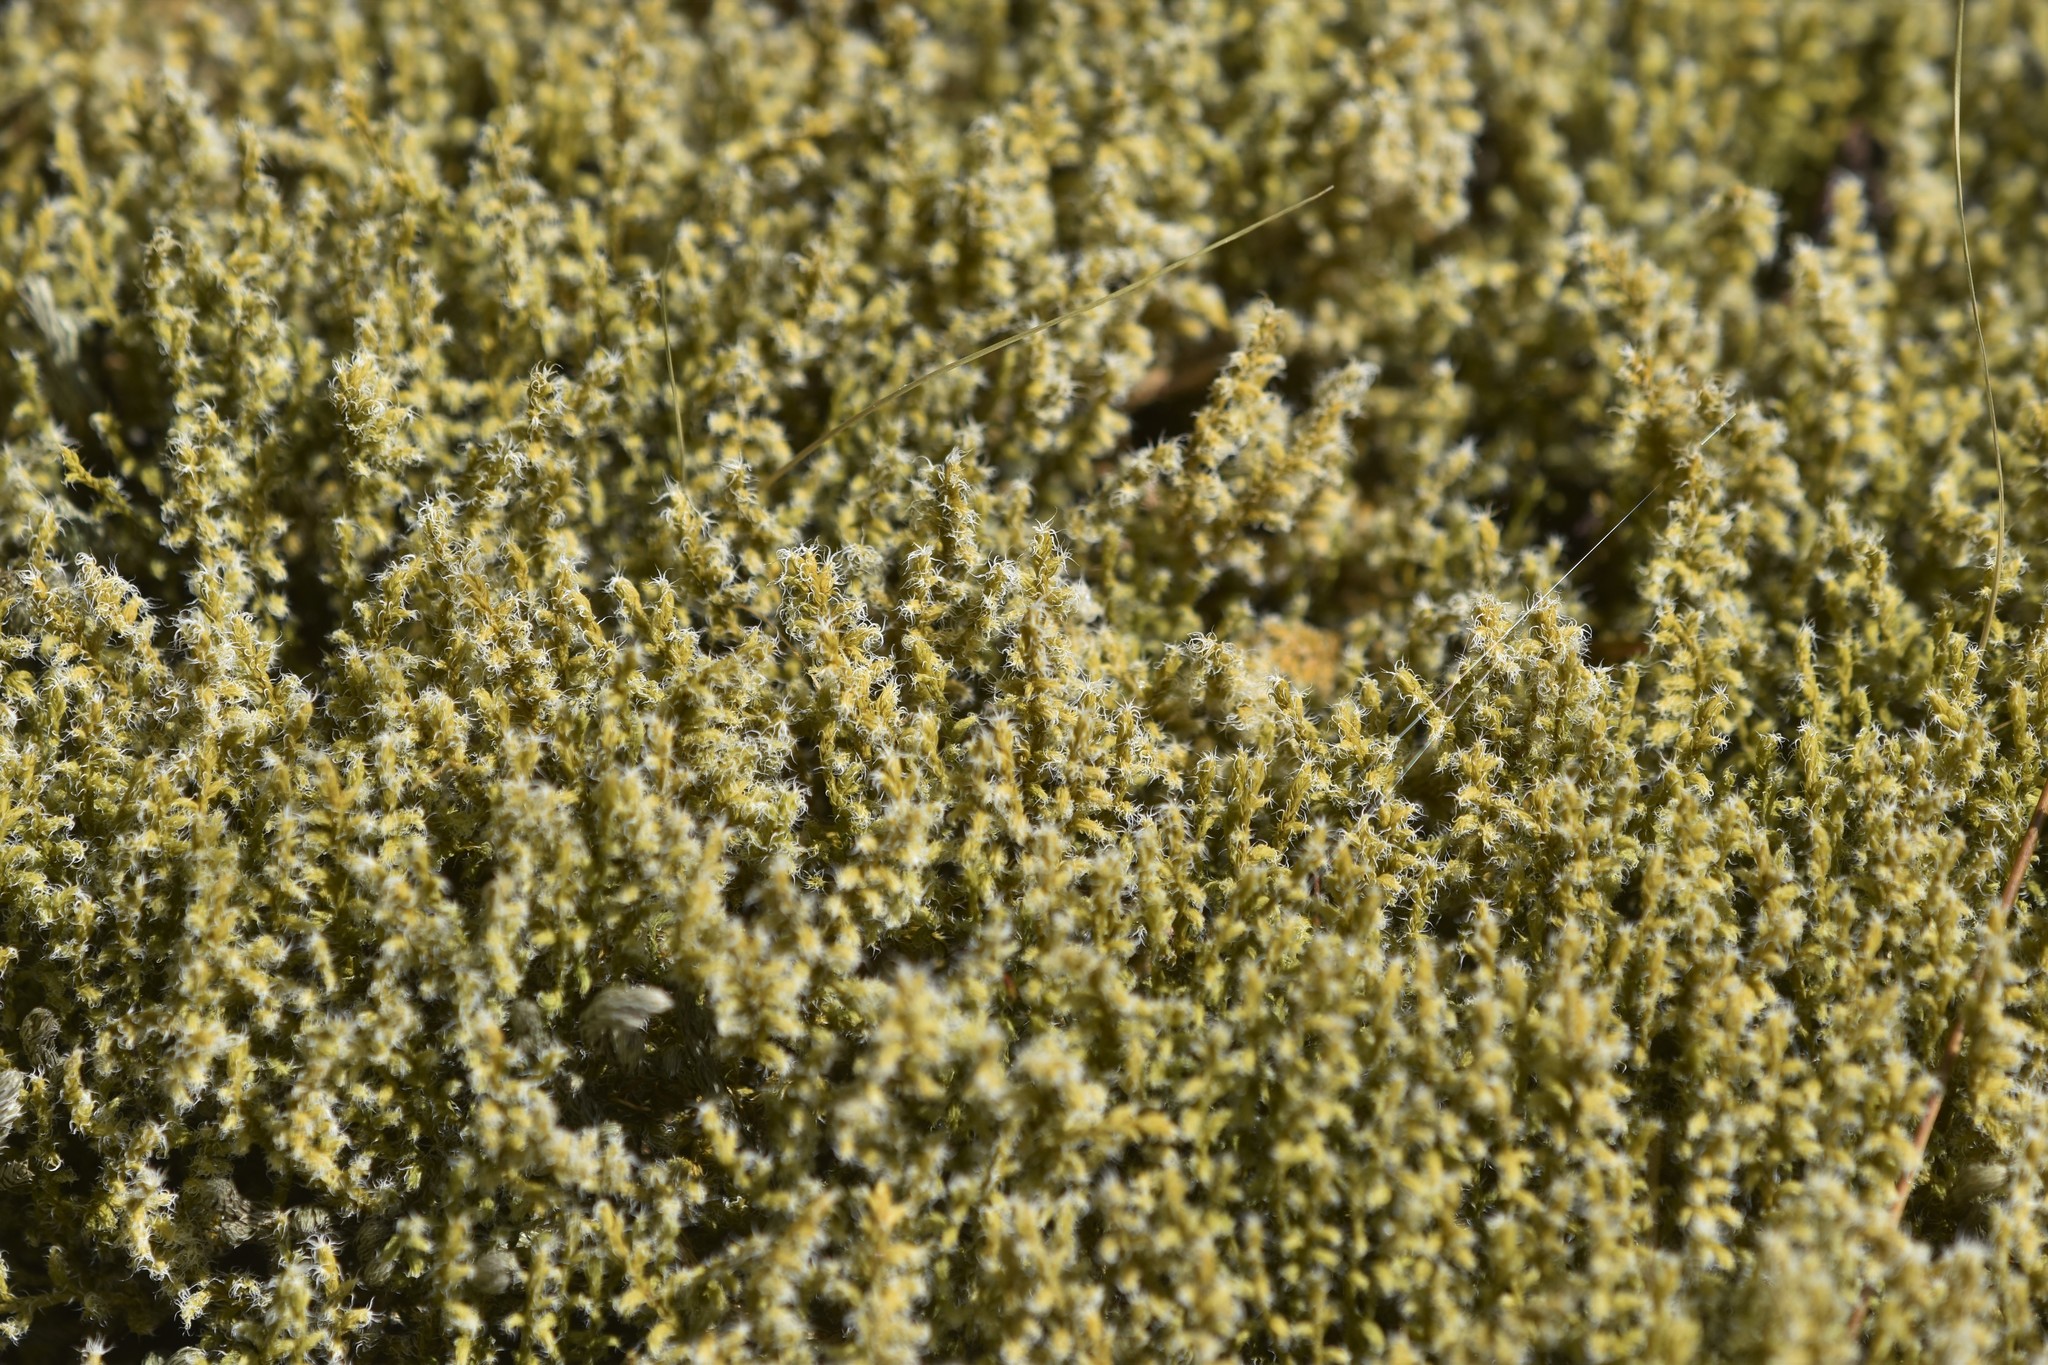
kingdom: Plantae
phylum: Bryophyta
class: Bryopsida
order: Grimmiales
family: Grimmiaceae
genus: Niphotrichum
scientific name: Niphotrichum elongatum
